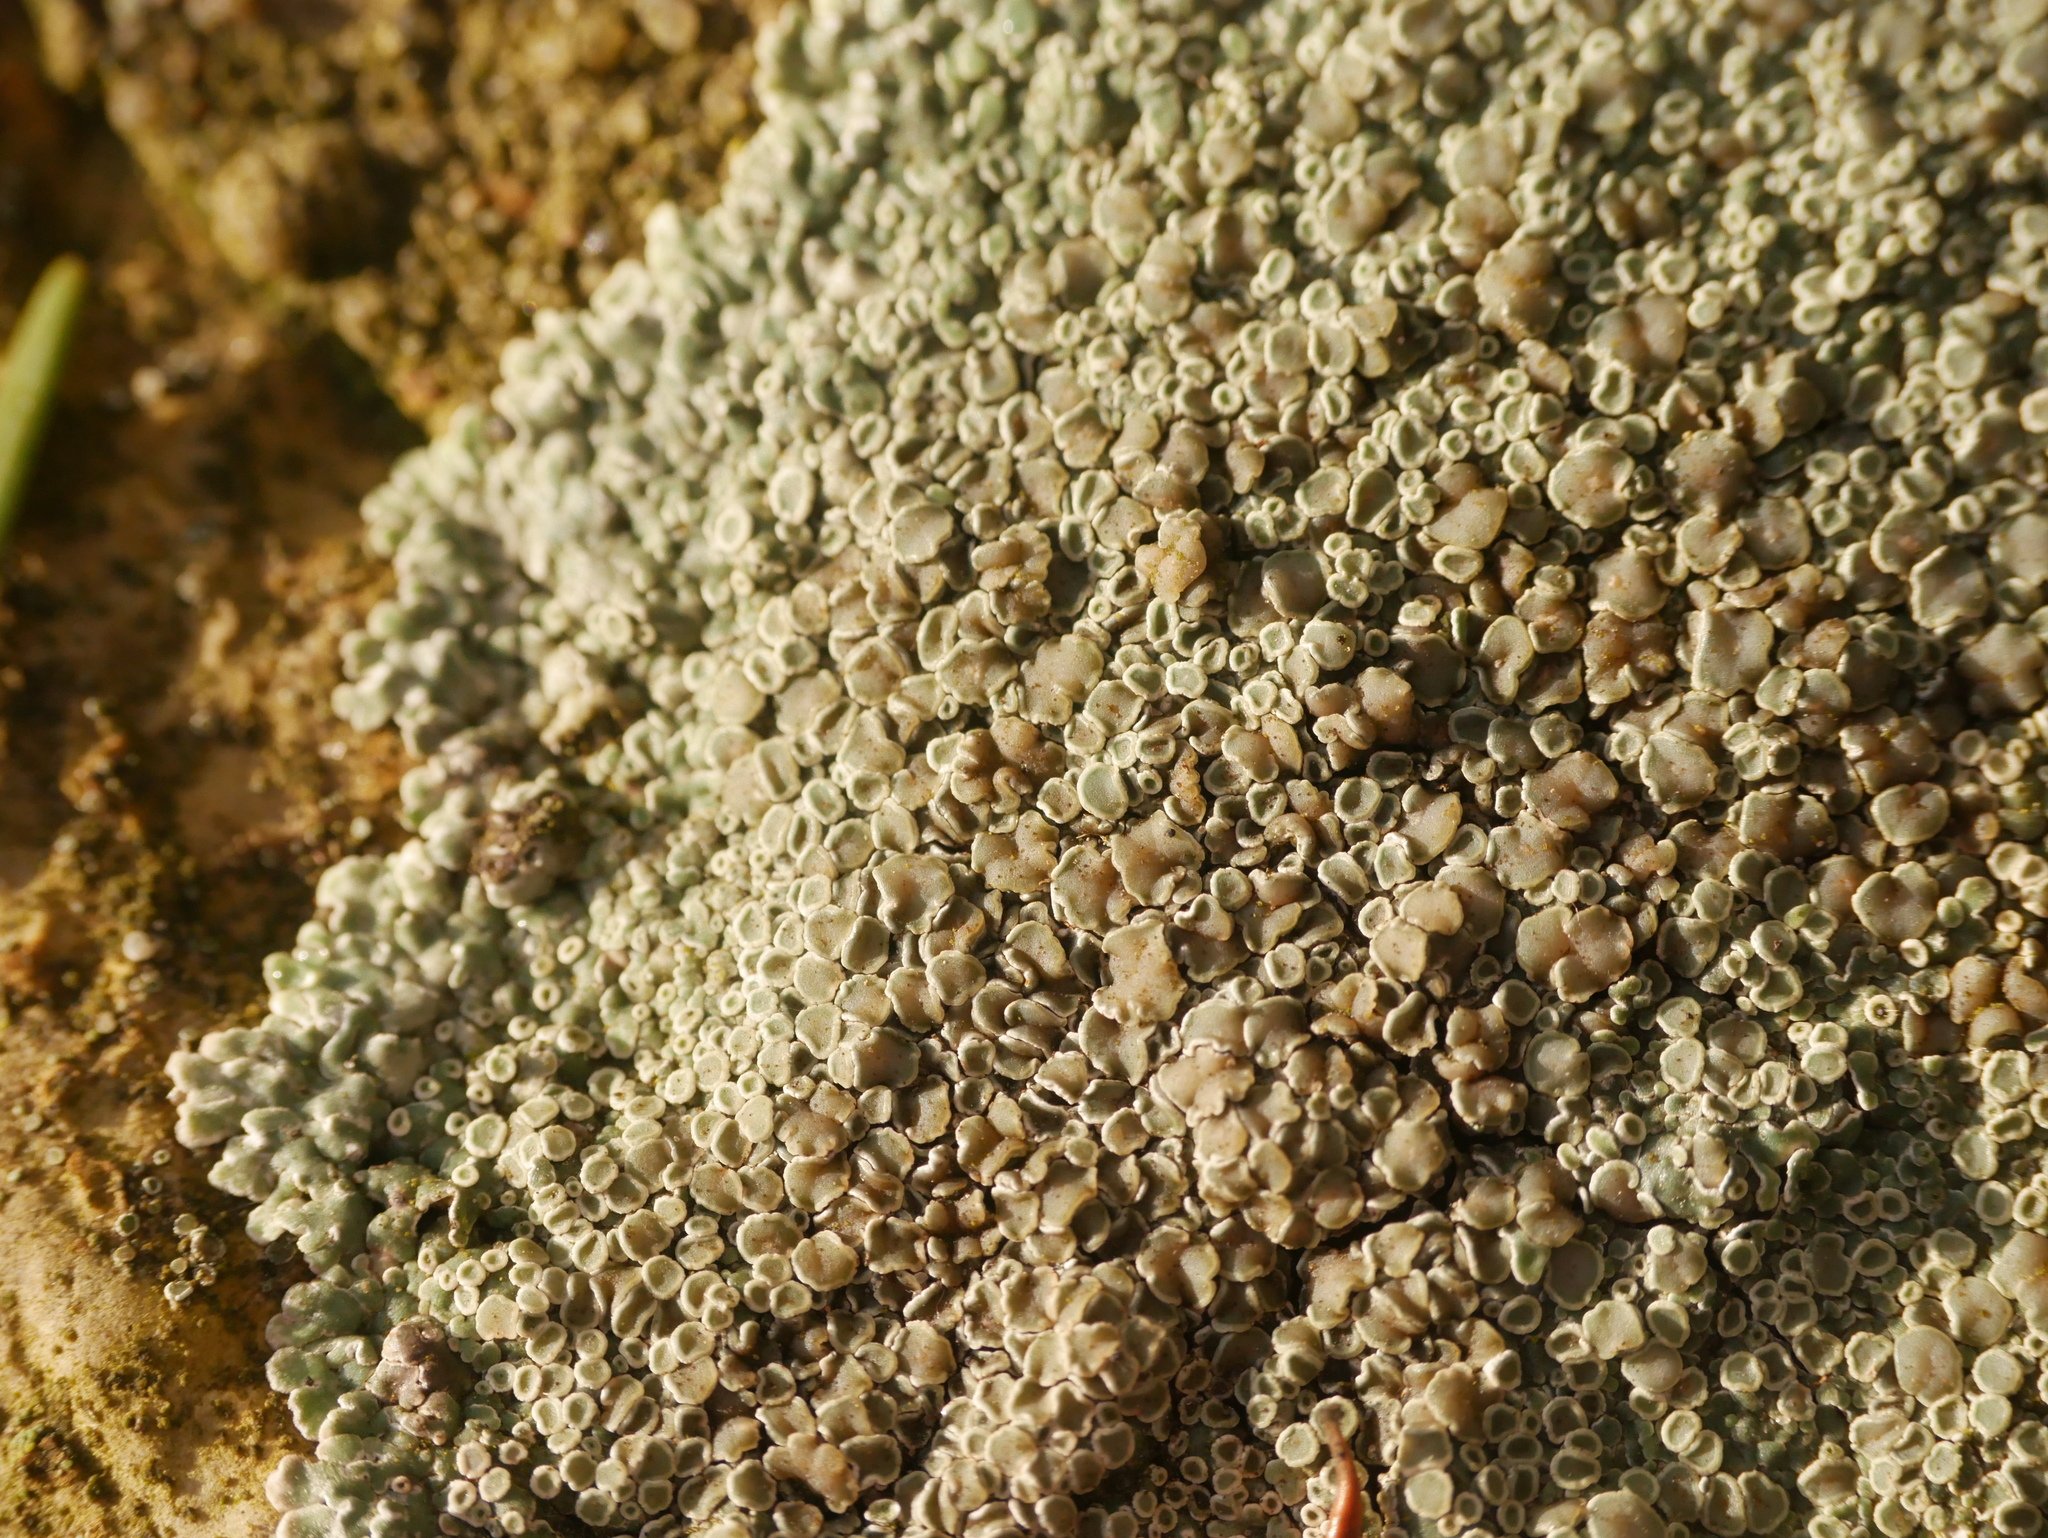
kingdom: Fungi
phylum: Ascomycota
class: Lecanoromycetes
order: Lecanorales
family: Lecanoraceae
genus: Protoparmeliopsis
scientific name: Protoparmeliopsis muralis
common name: Stonewall rim lichen
